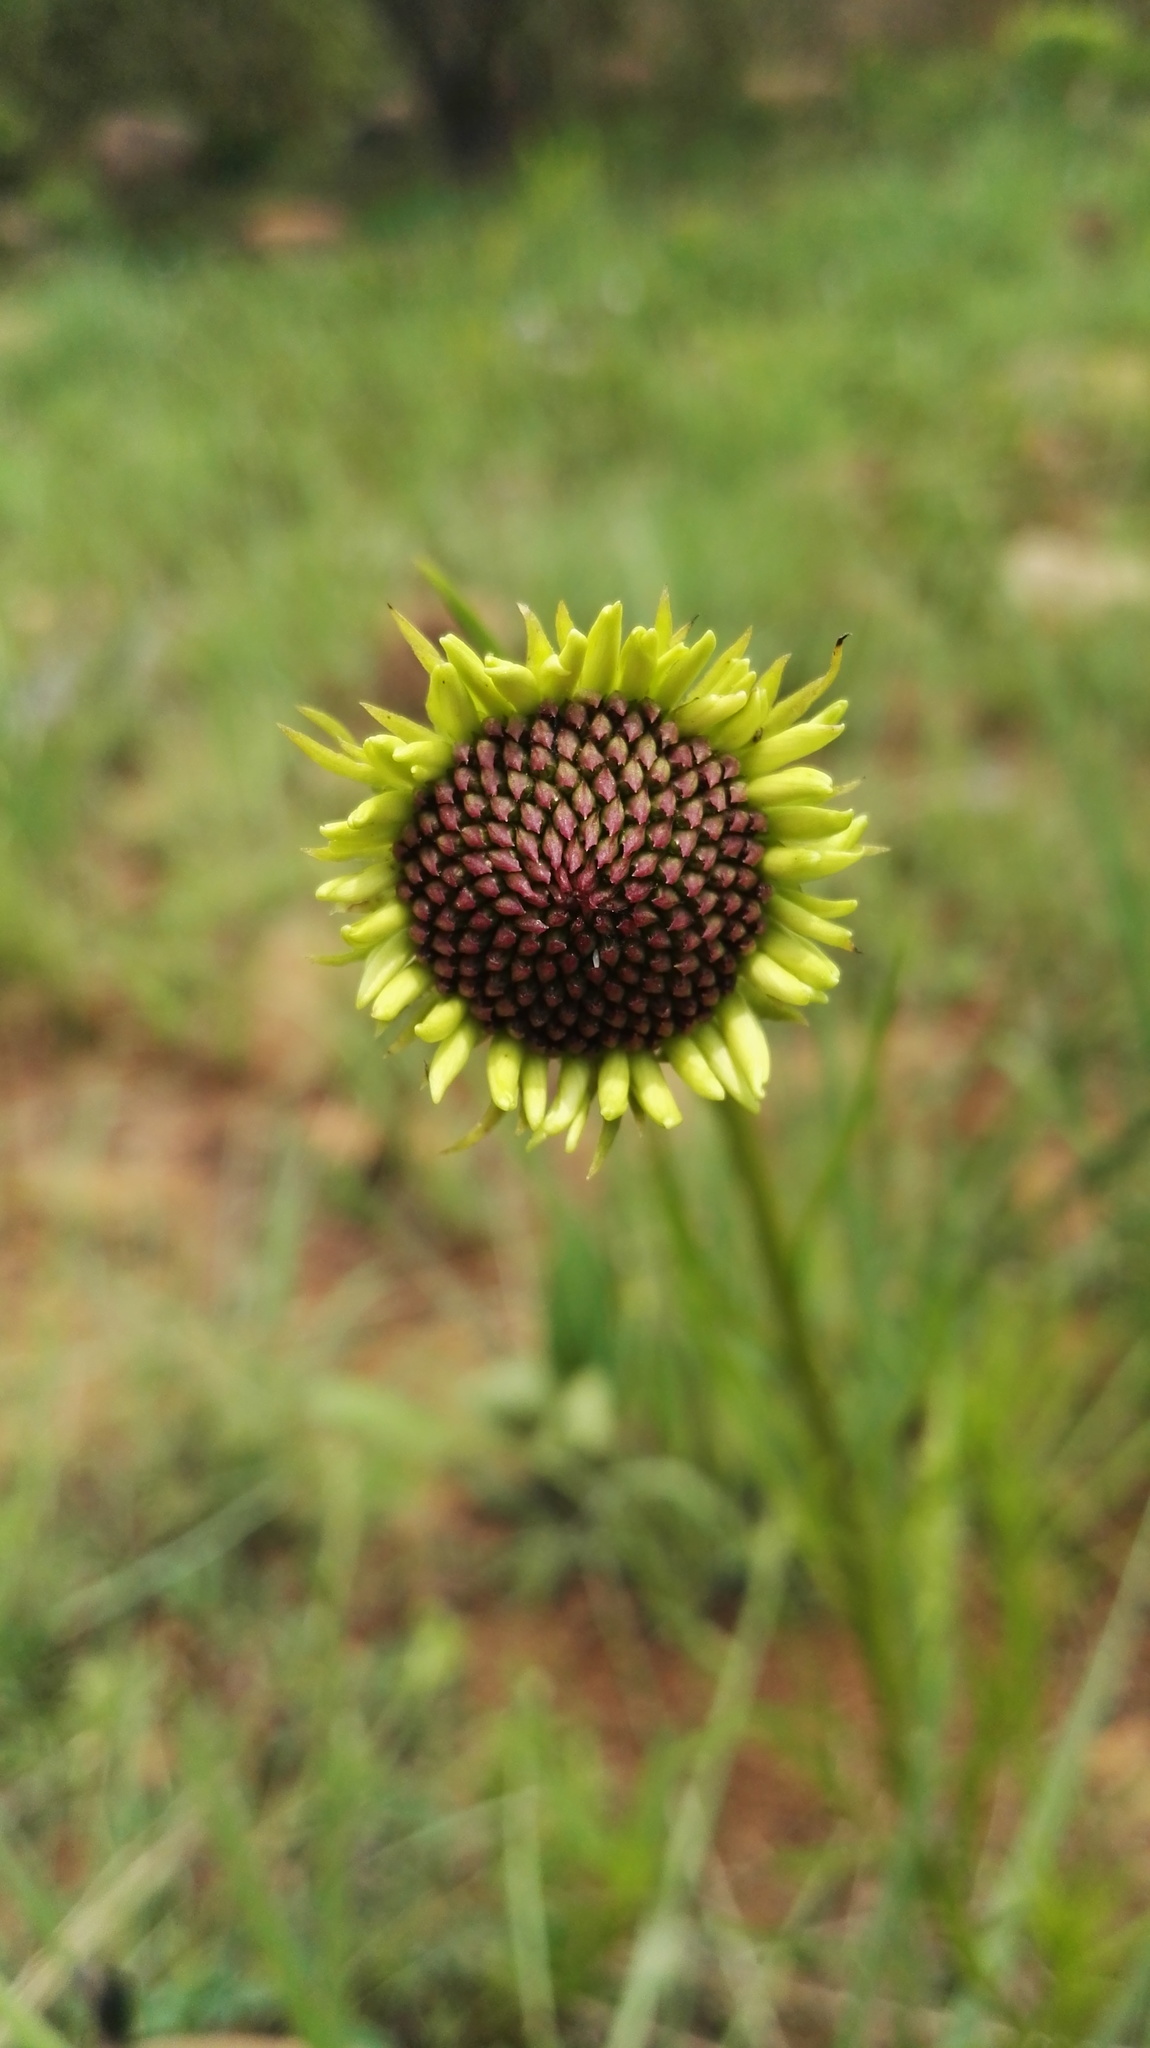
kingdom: Plantae
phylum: Tracheophyta
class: Magnoliopsida
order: Asterales
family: Asteraceae
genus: Callilepis
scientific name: Callilepis laureola
